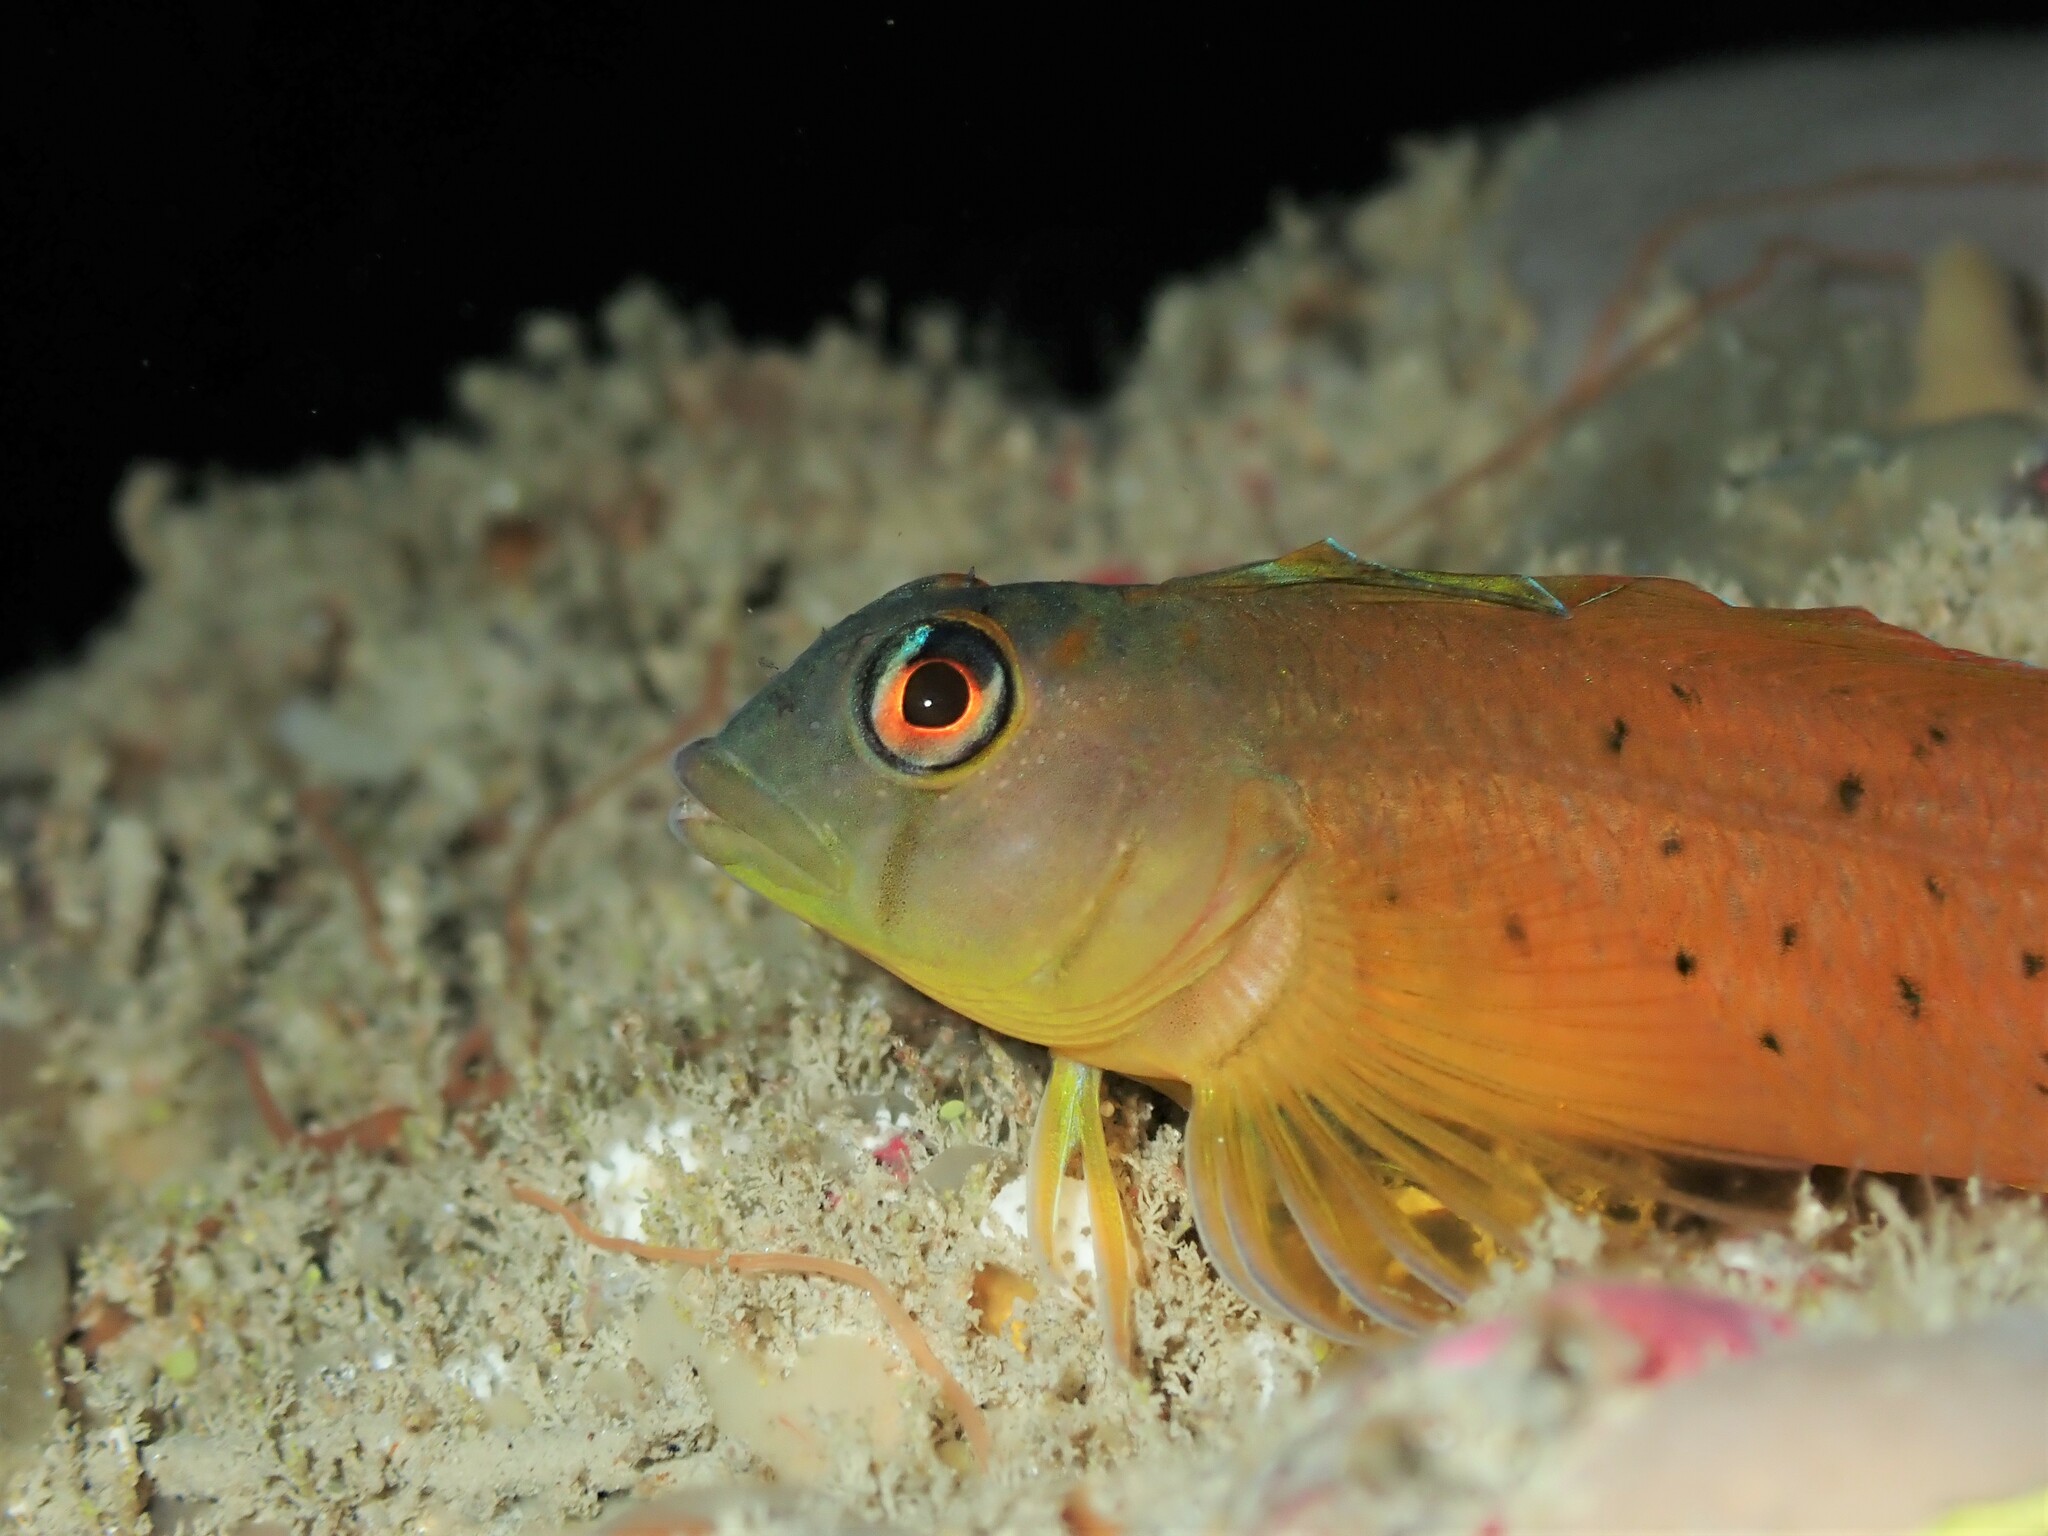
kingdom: Animalia
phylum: Chordata
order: Perciformes
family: Tripterygiidae
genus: Notoclinops
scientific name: Notoclinops yaldwyni
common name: Yaldwyn's triplefin
